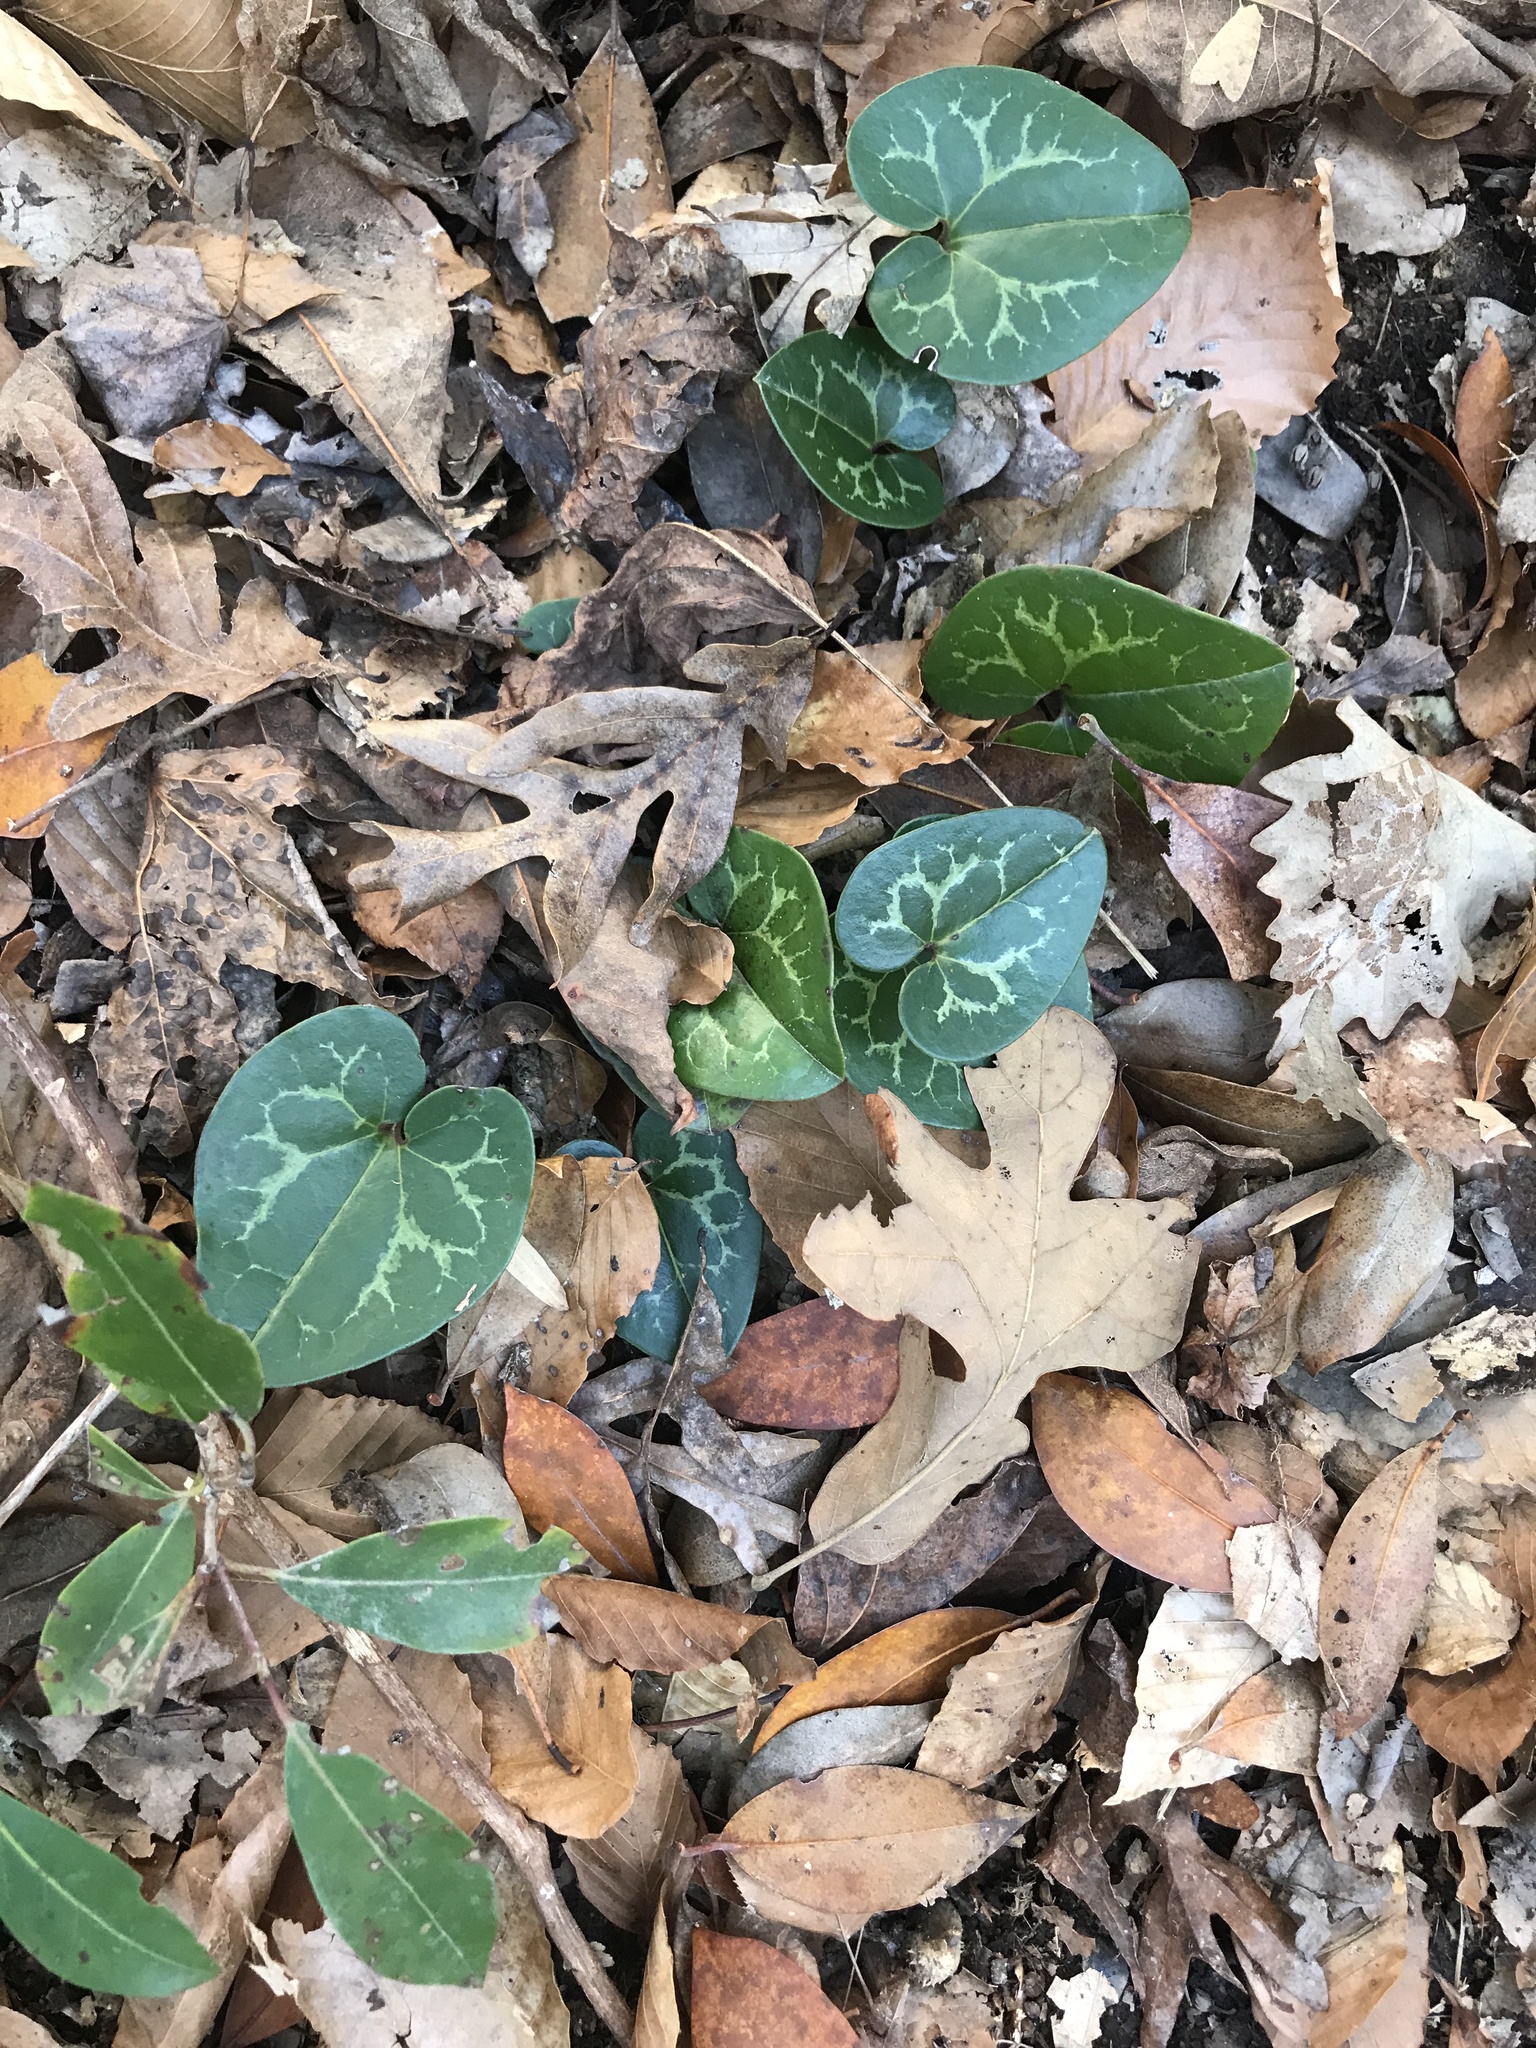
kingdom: Plantae
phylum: Tracheophyta
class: Magnoliopsida
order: Piperales
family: Aristolochiaceae
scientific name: Aristolochiaceae
